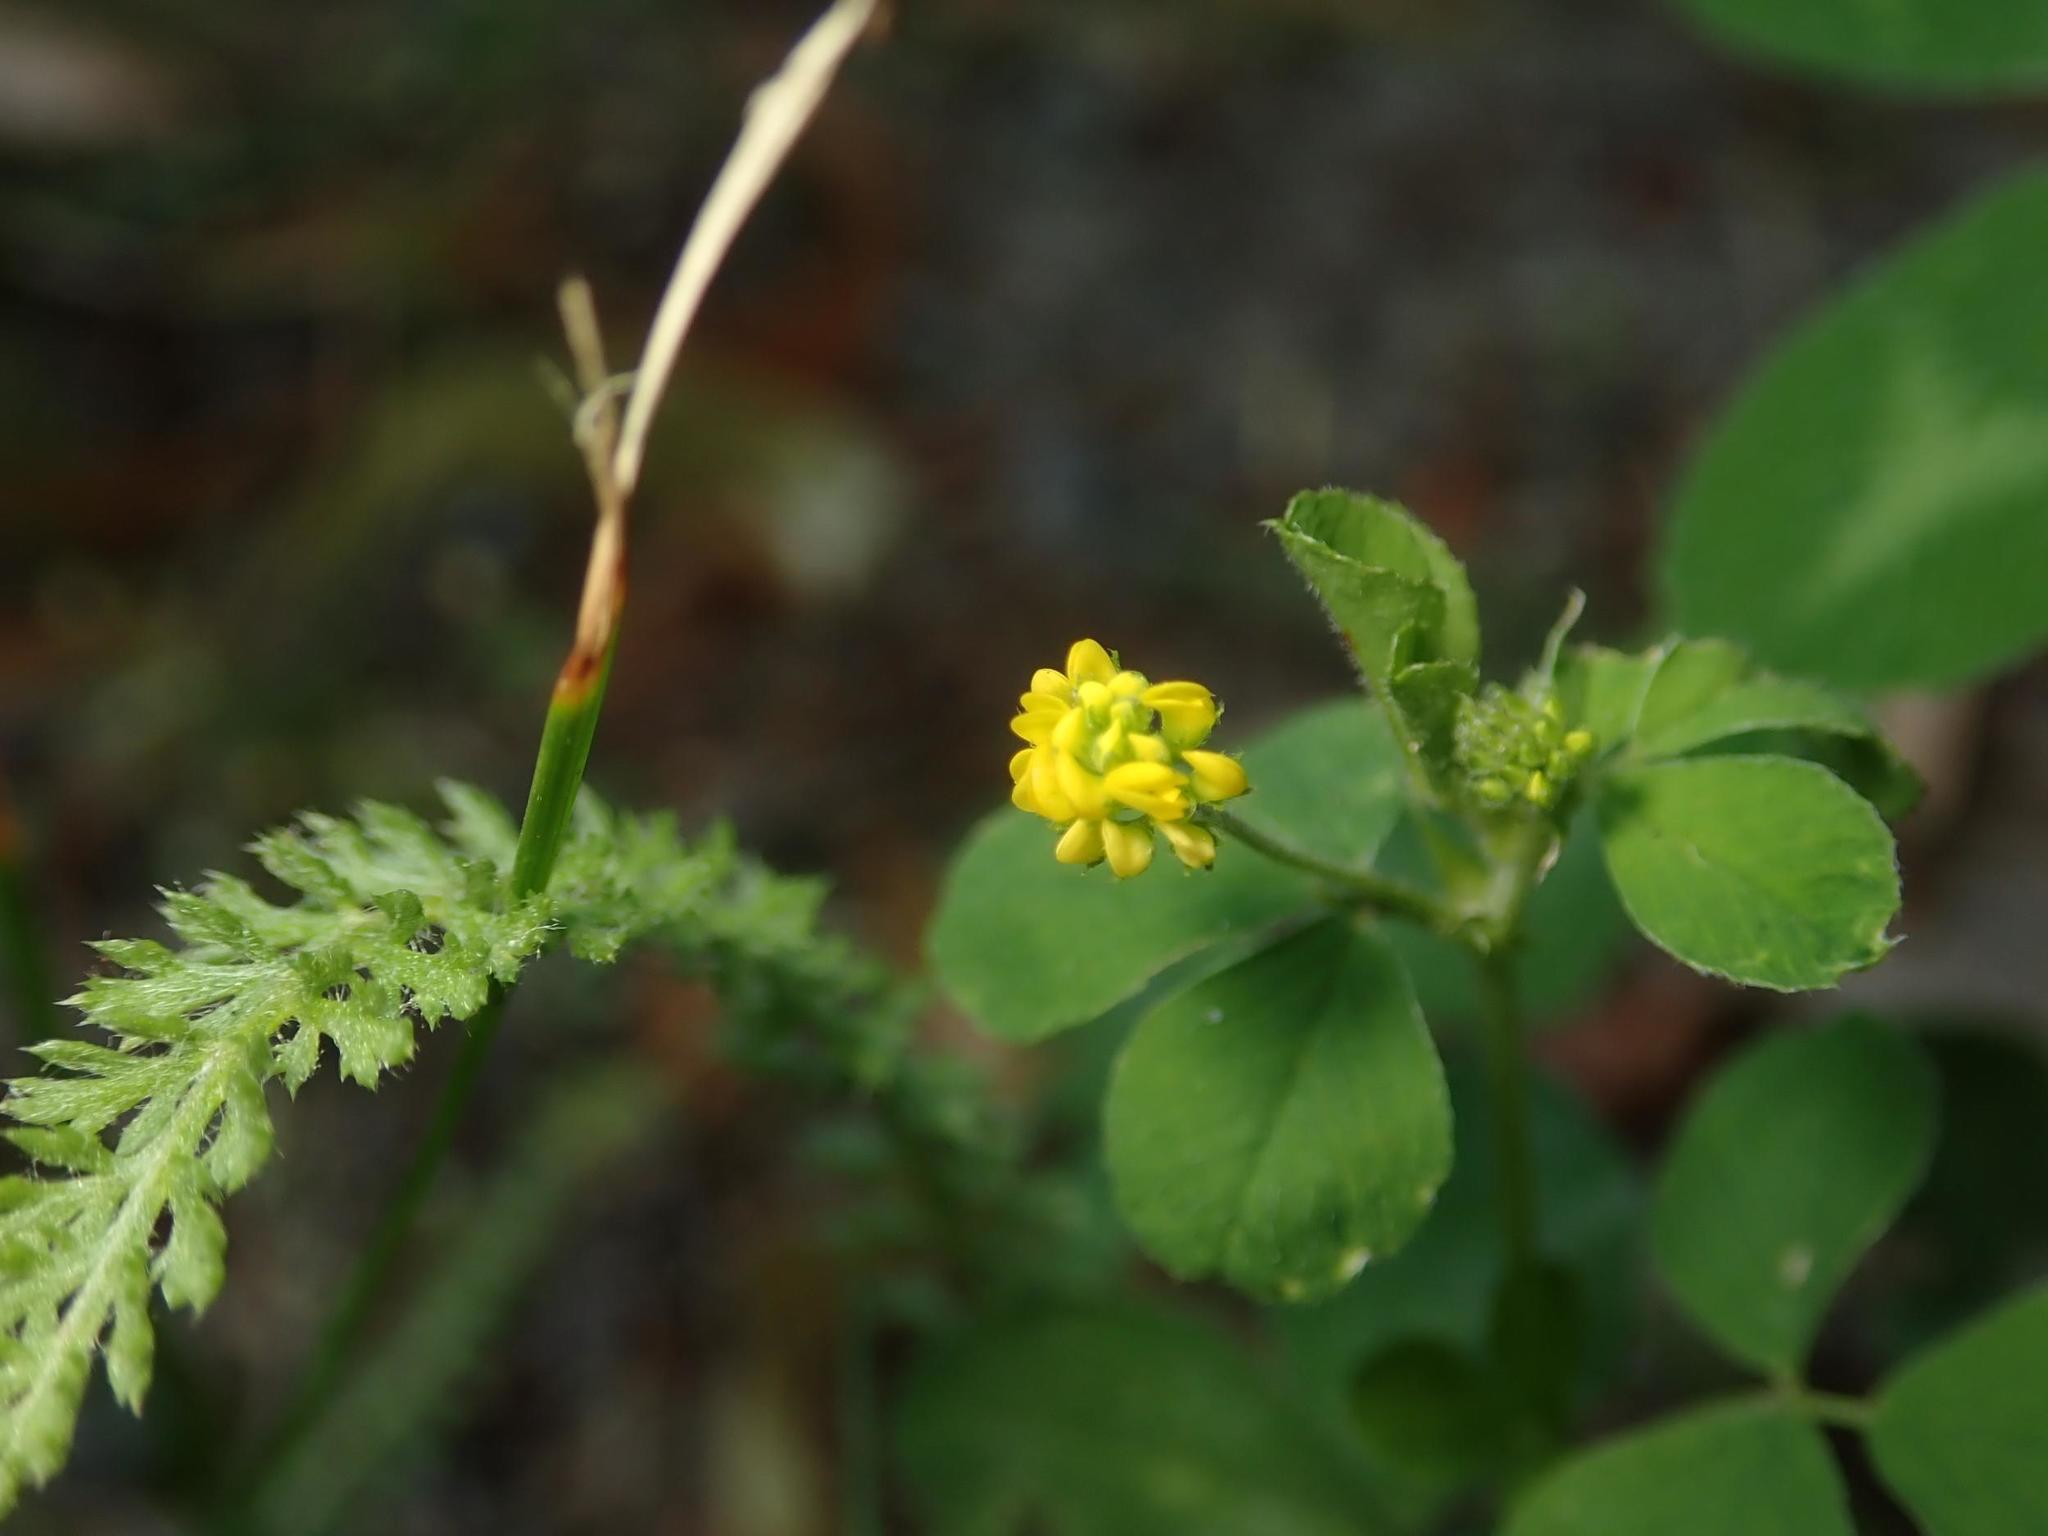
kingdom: Plantae
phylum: Tracheophyta
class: Magnoliopsida
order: Fabales
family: Fabaceae
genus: Medicago
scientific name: Medicago lupulina
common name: Black medick
